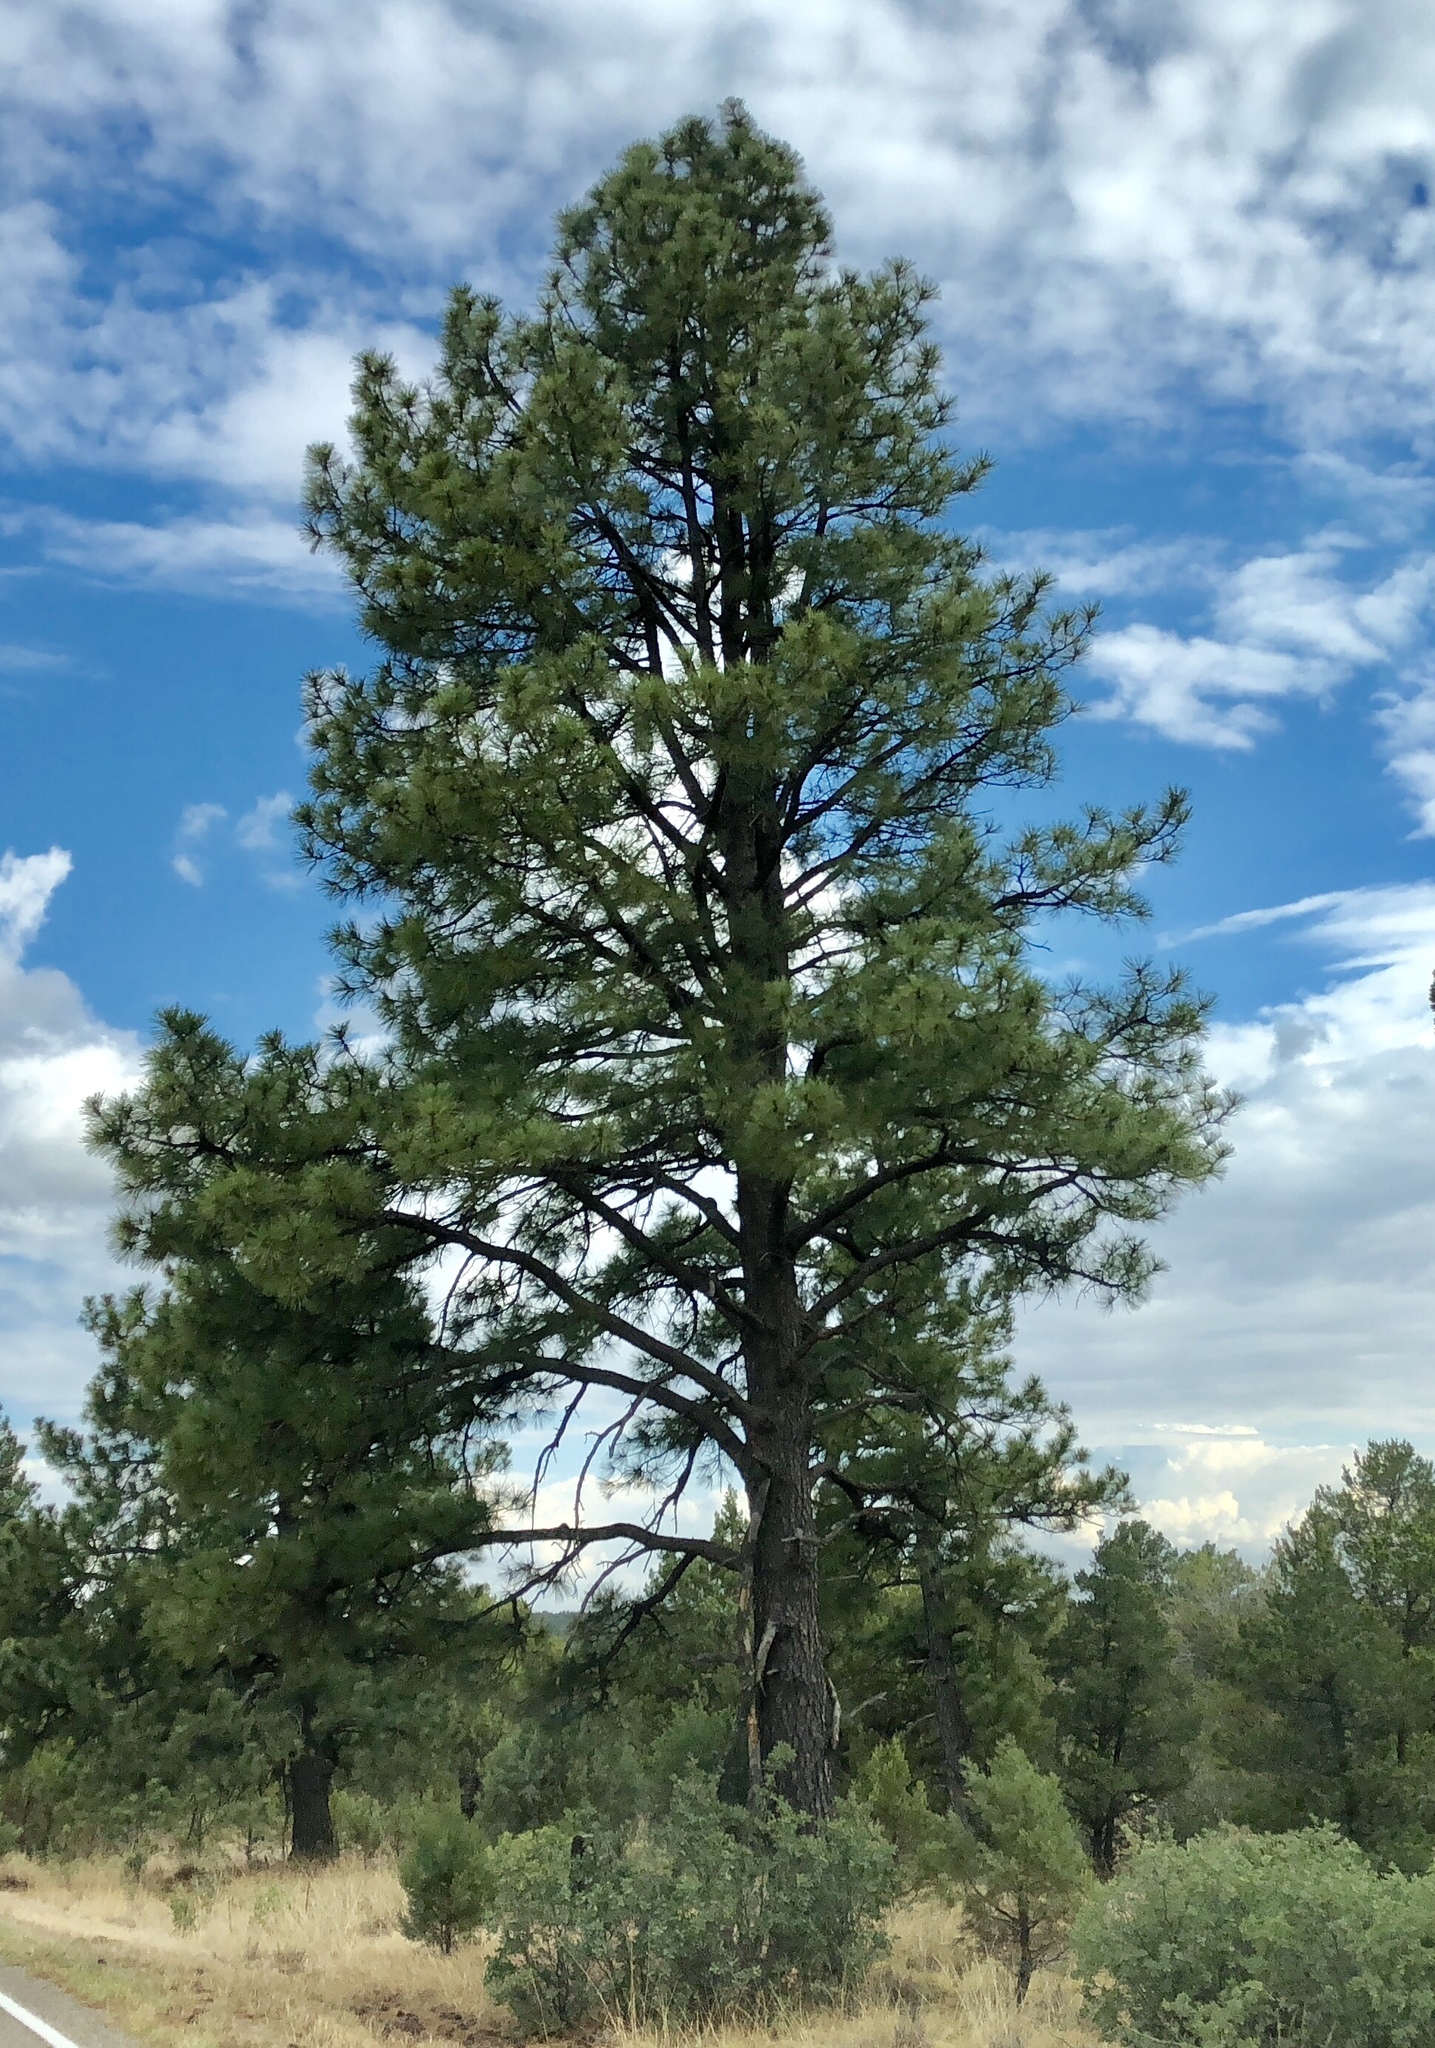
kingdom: Plantae
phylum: Tracheophyta
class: Pinopsida
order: Pinales
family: Pinaceae
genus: Pinus
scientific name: Pinus ponderosa
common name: Western yellow-pine
